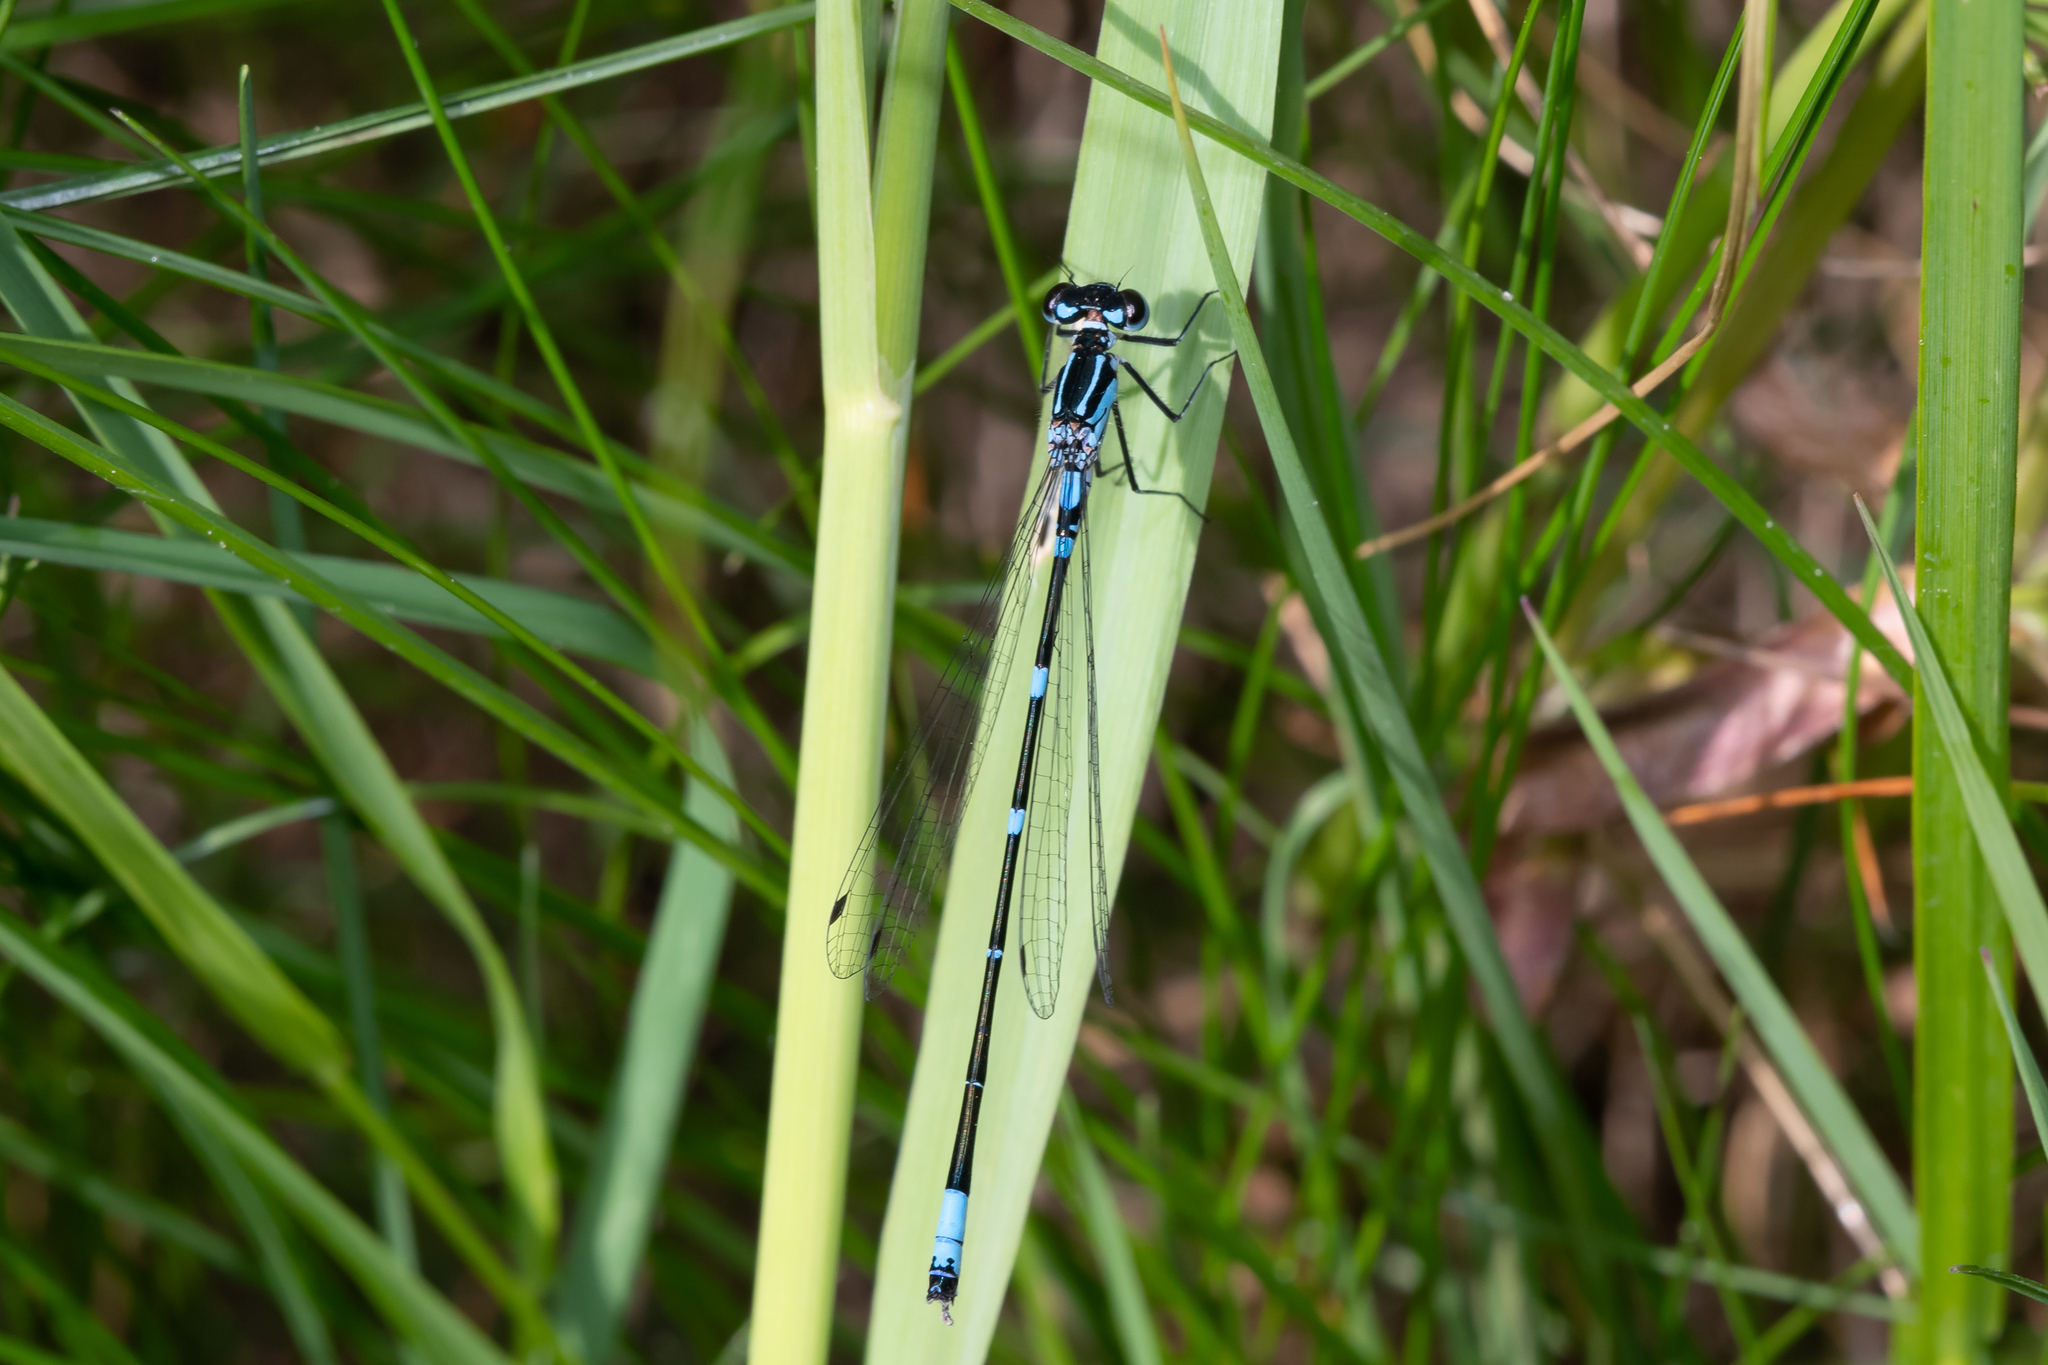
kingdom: Animalia
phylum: Arthropoda
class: Insecta
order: Odonata
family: Coenagrionidae
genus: Coenagrion
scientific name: Coenagrion pulchellum
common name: Variable bluet
